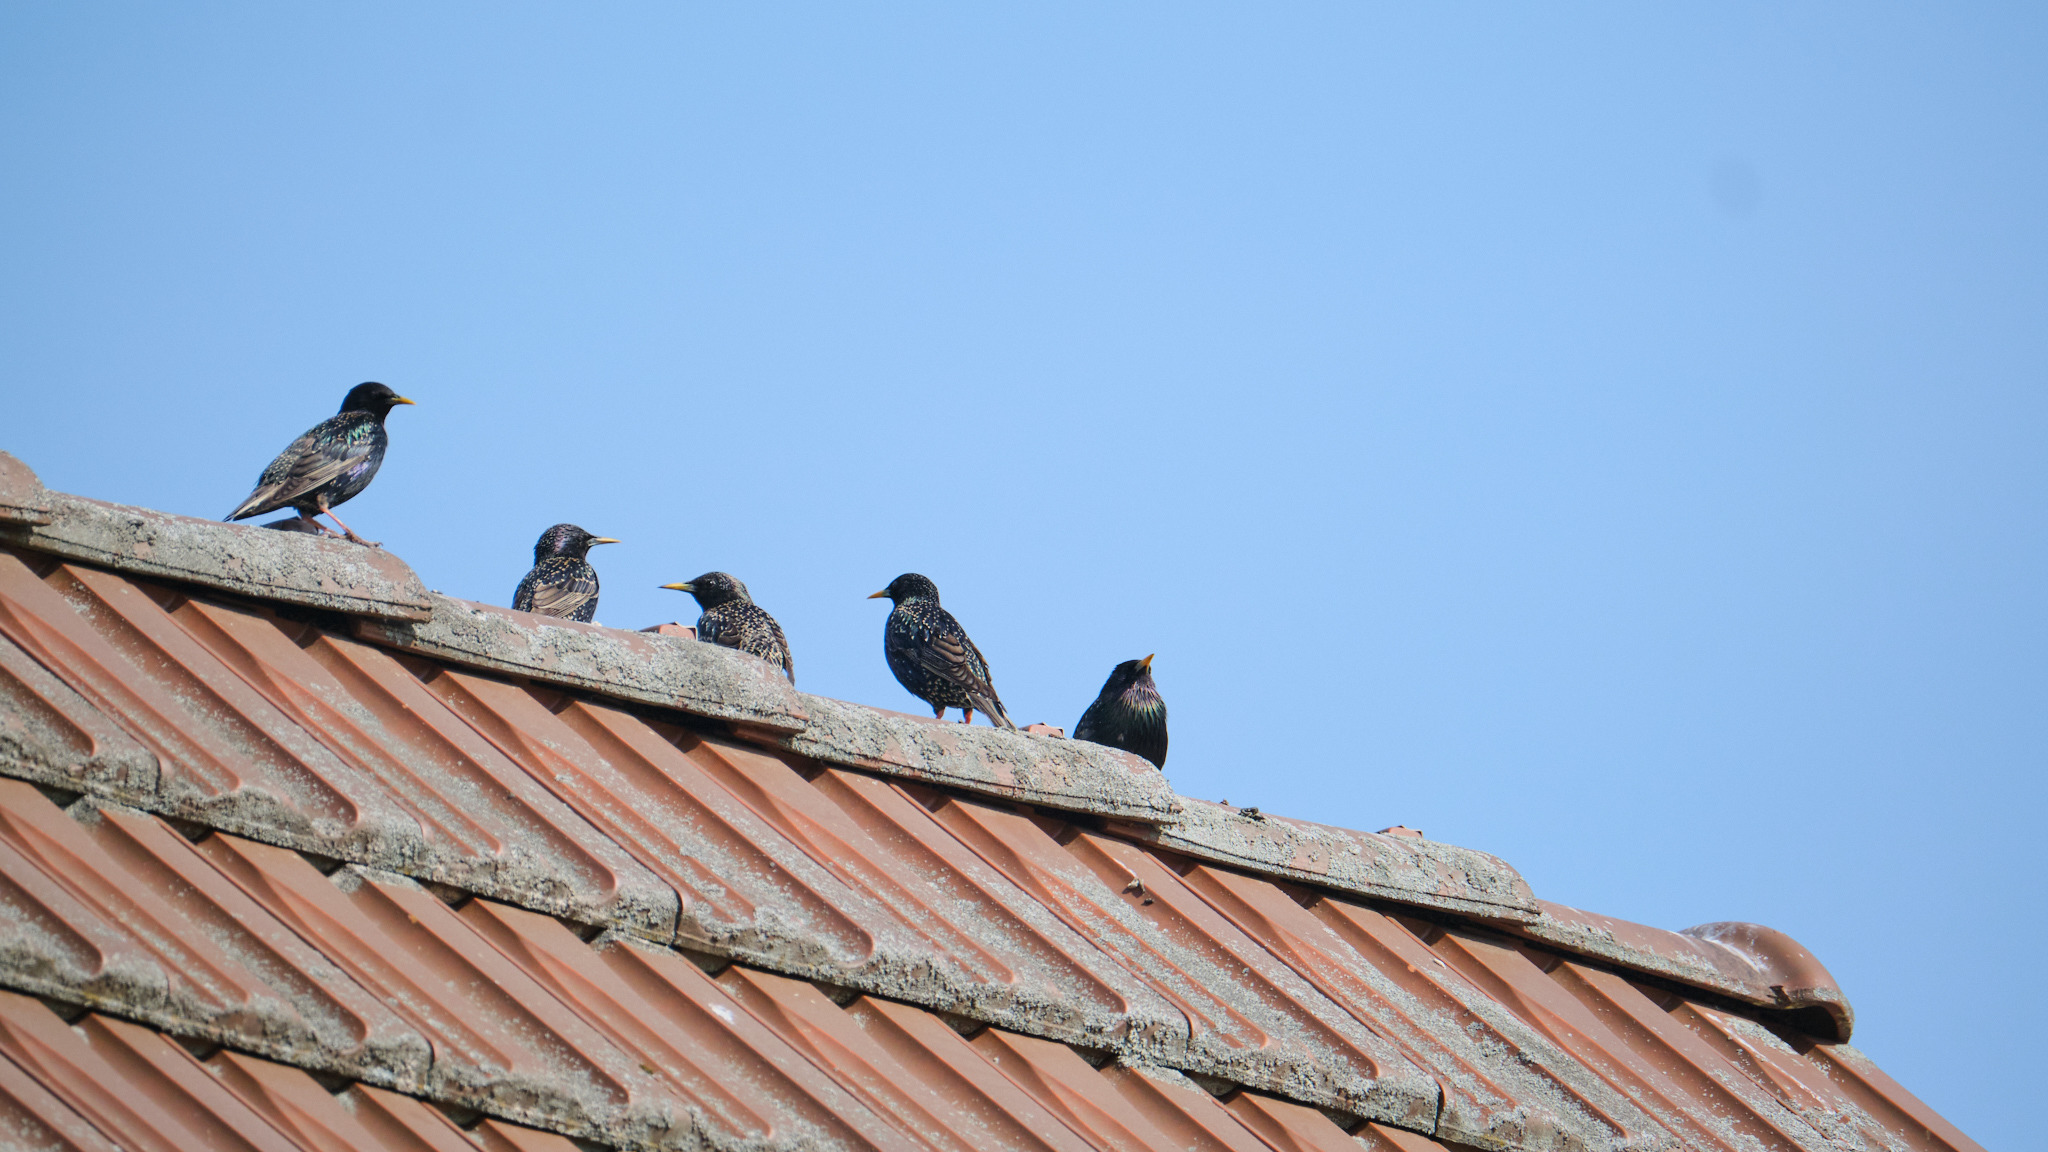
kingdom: Animalia
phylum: Chordata
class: Aves
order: Passeriformes
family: Sturnidae
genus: Sturnus
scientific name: Sturnus vulgaris
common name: Common starling
